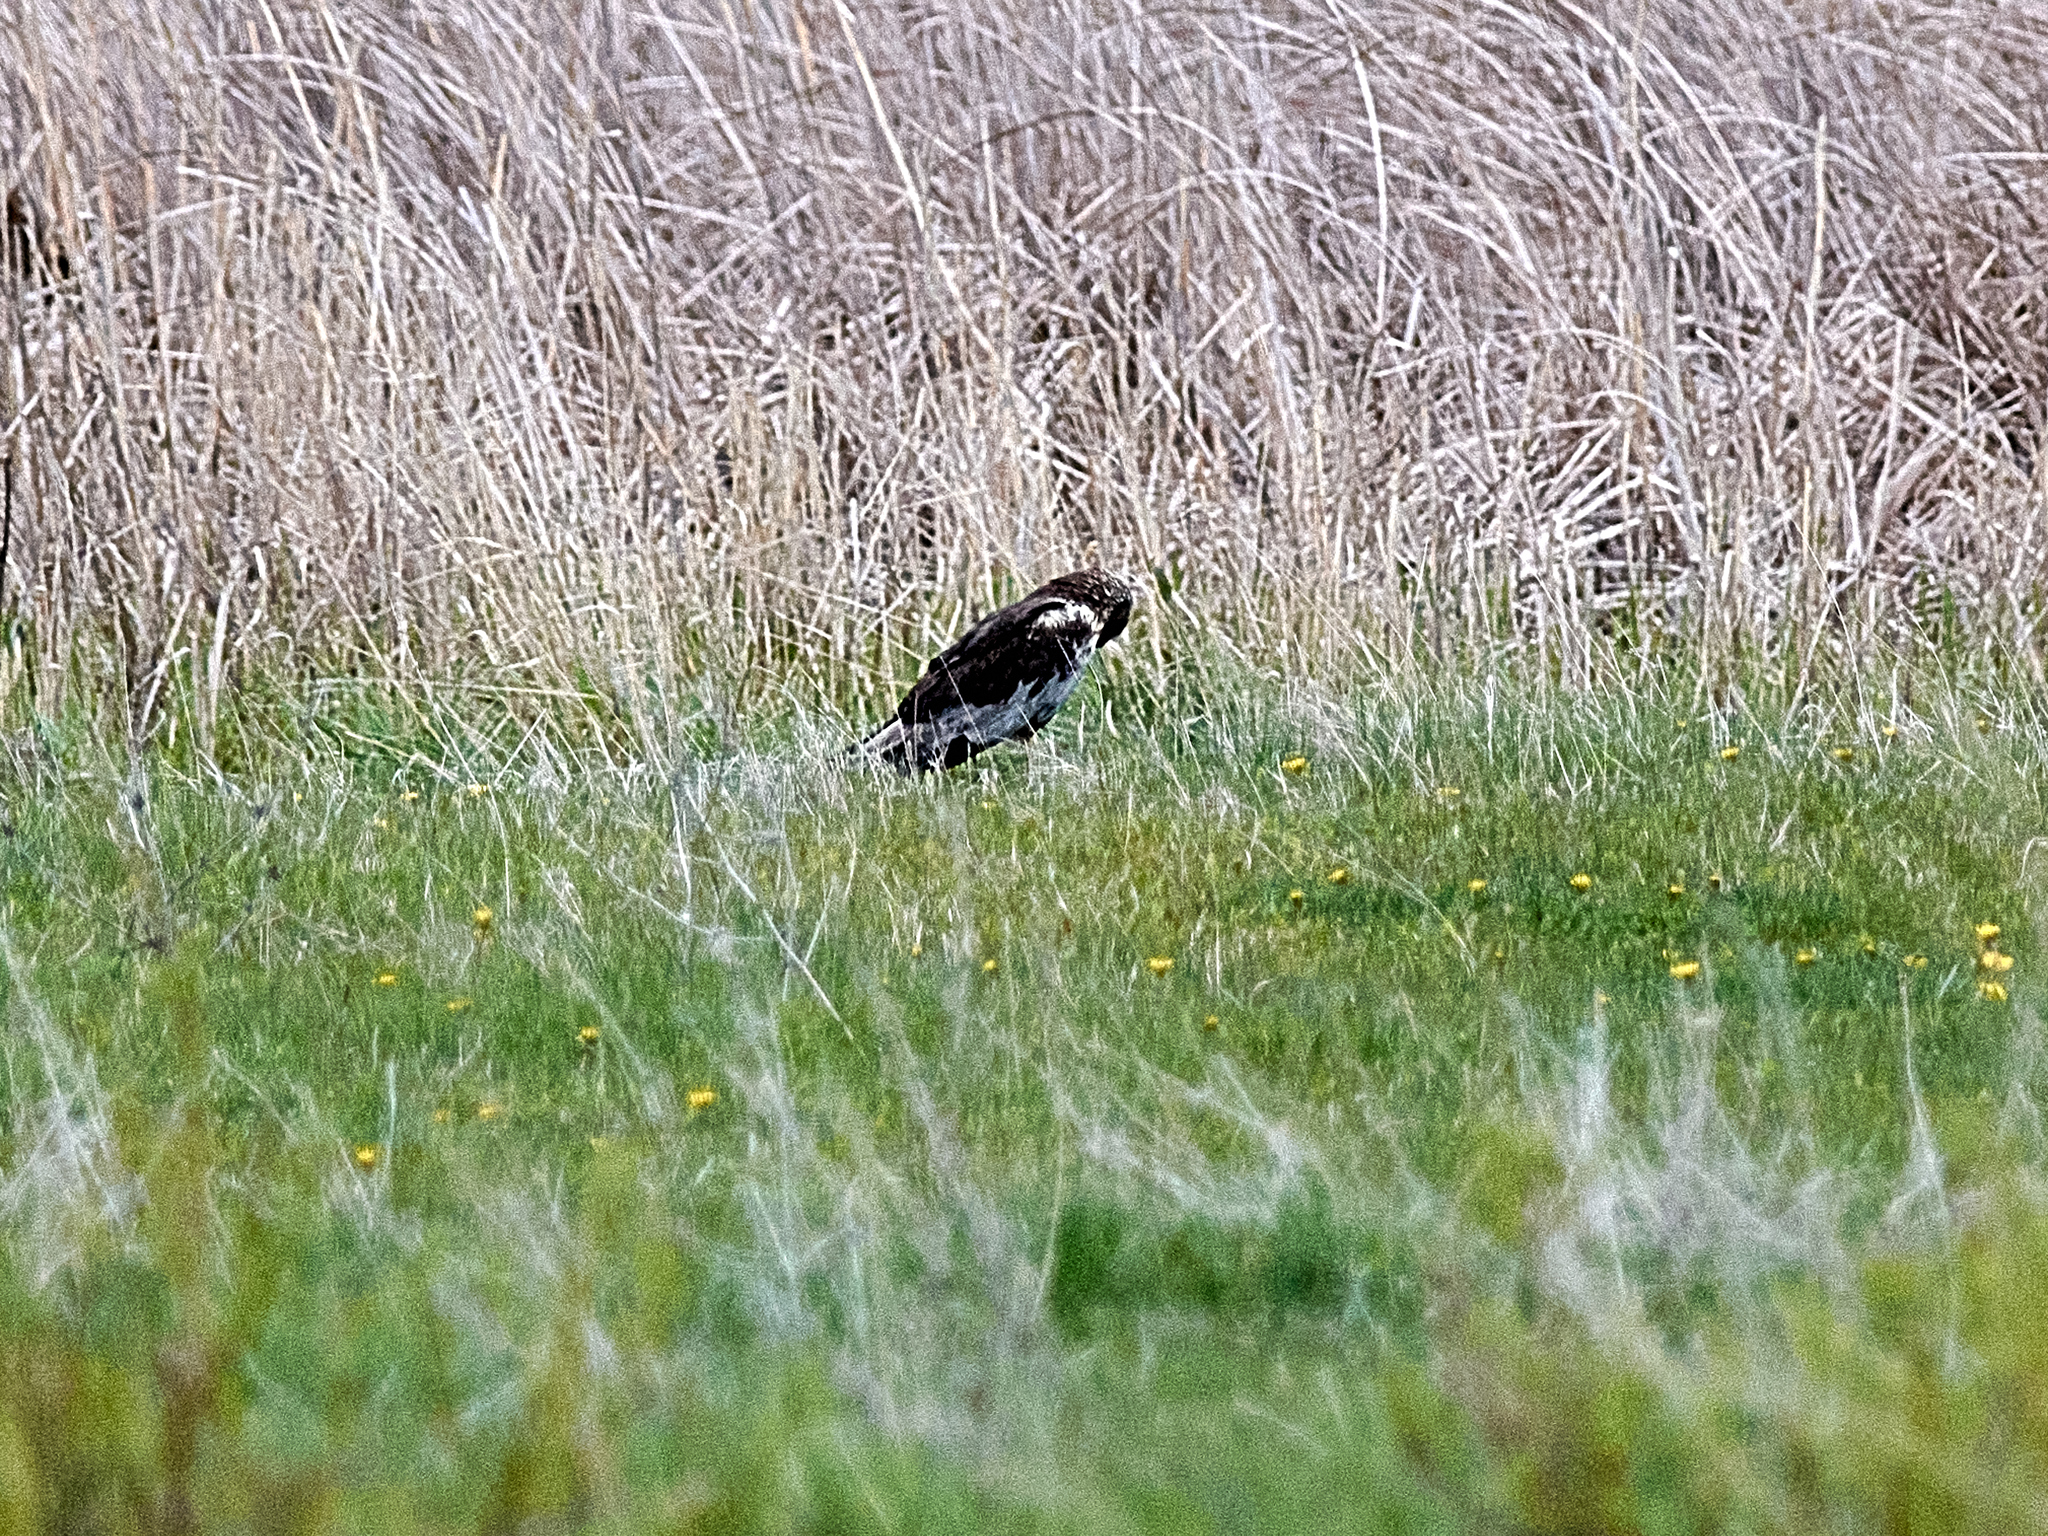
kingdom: Animalia
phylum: Chordata
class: Aves
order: Accipitriformes
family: Accipitridae
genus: Circus
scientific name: Circus aeruginosus
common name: Western marsh harrier
